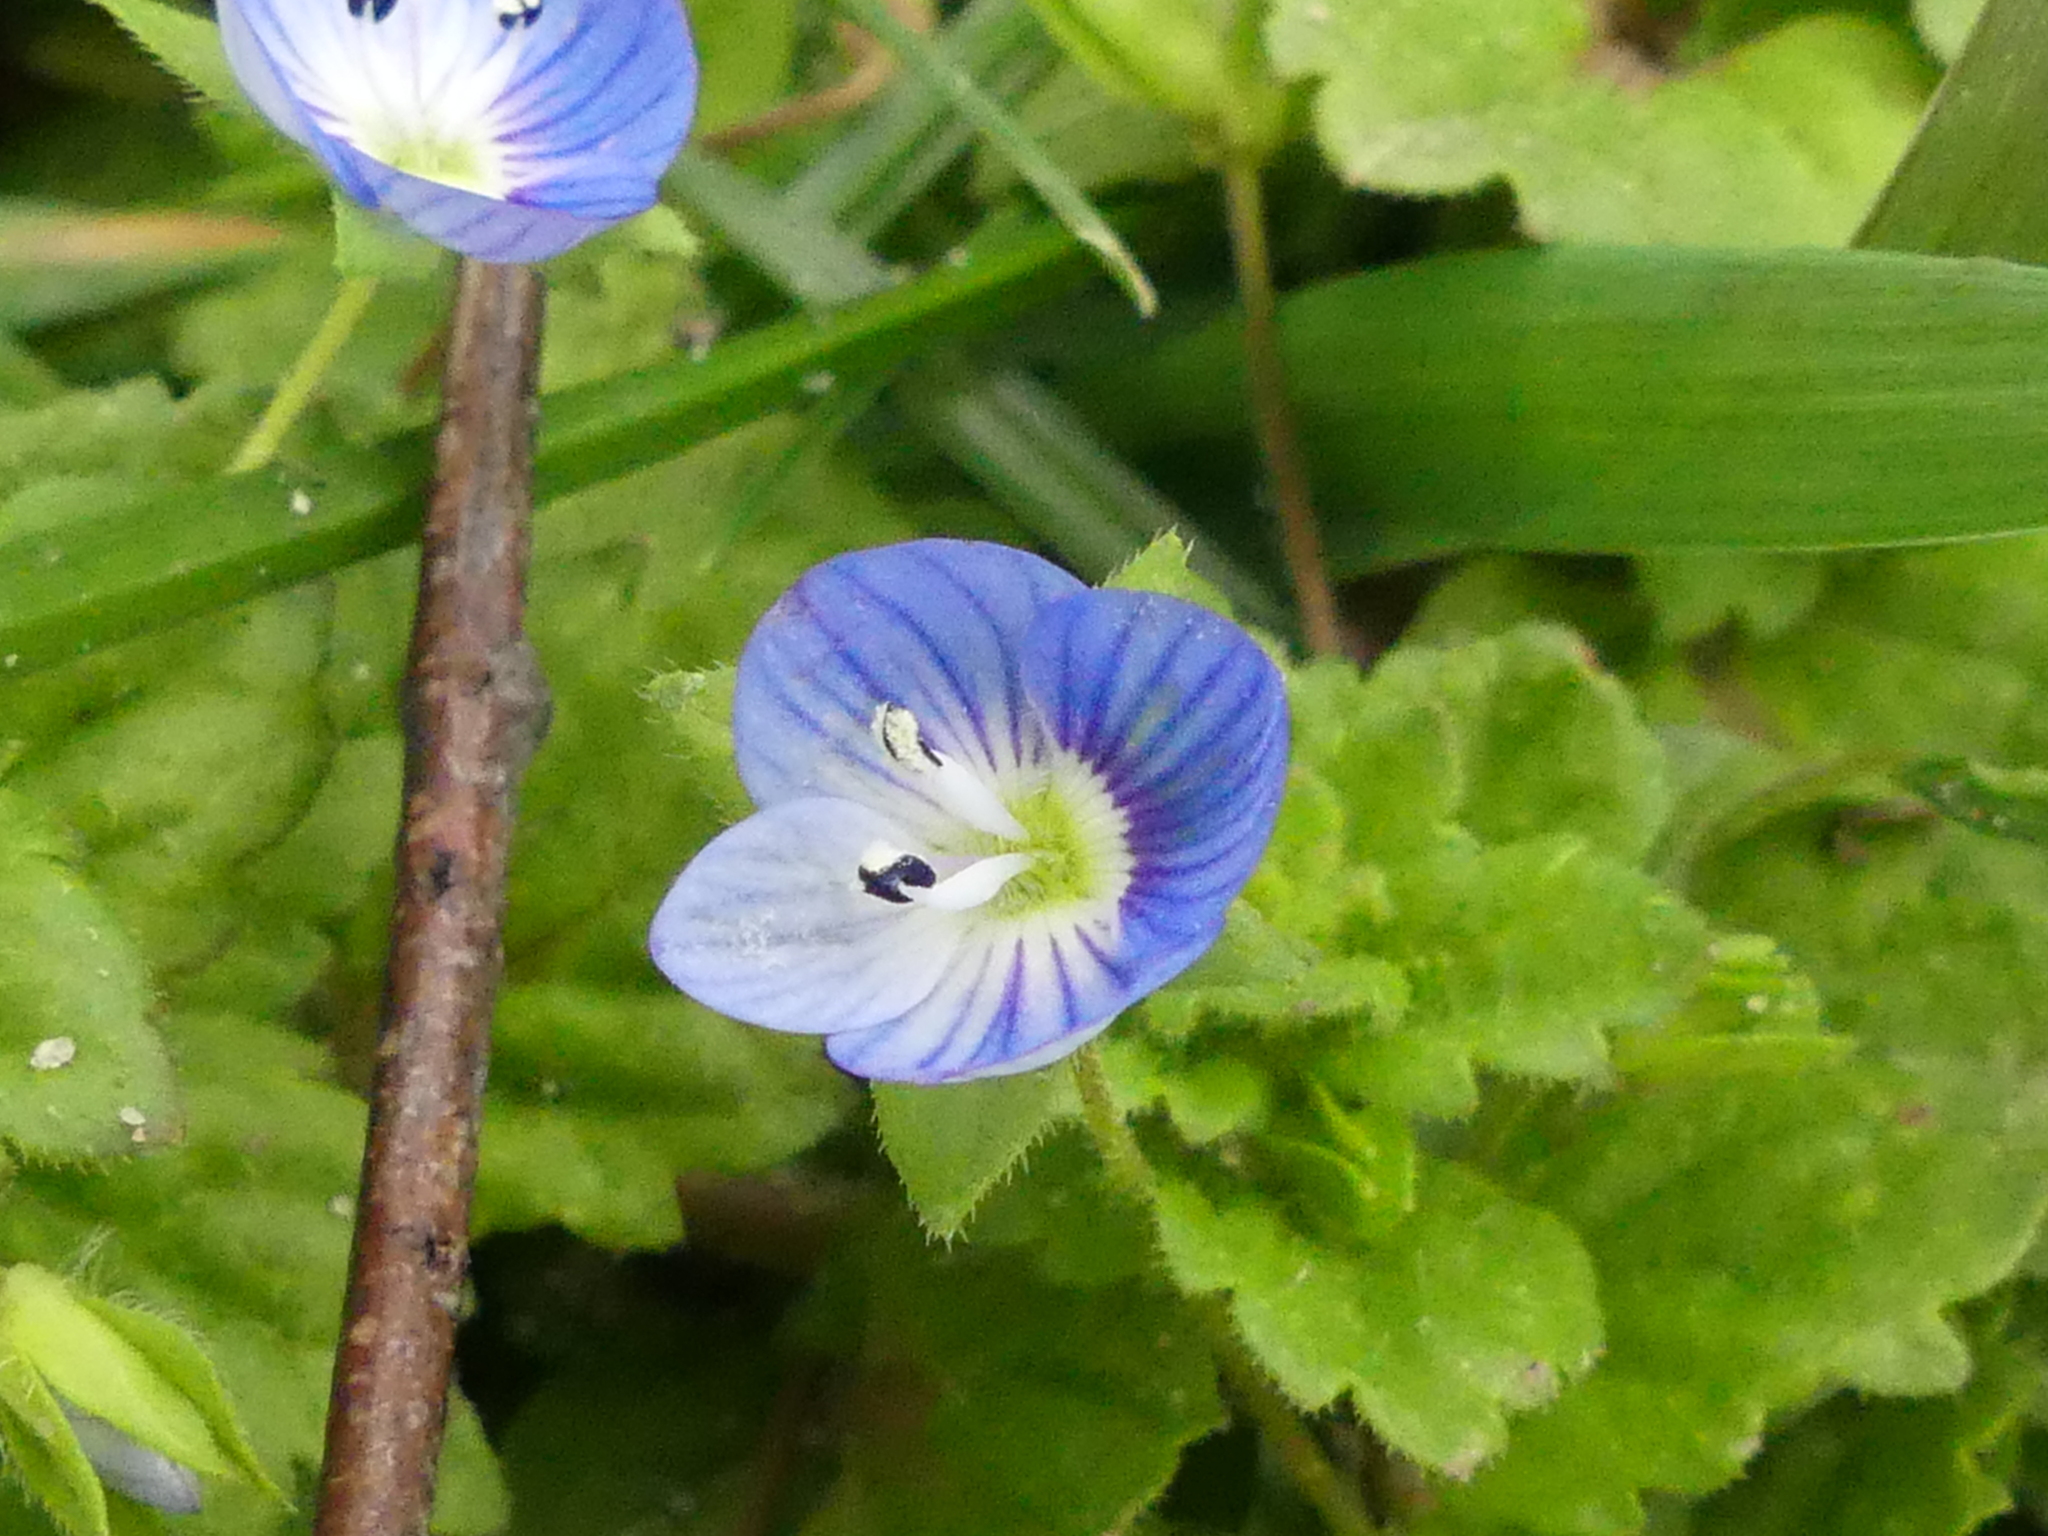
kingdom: Plantae
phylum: Tracheophyta
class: Magnoliopsida
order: Lamiales
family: Plantaginaceae
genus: Veronica
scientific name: Veronica persica
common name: Common field-speedwell
